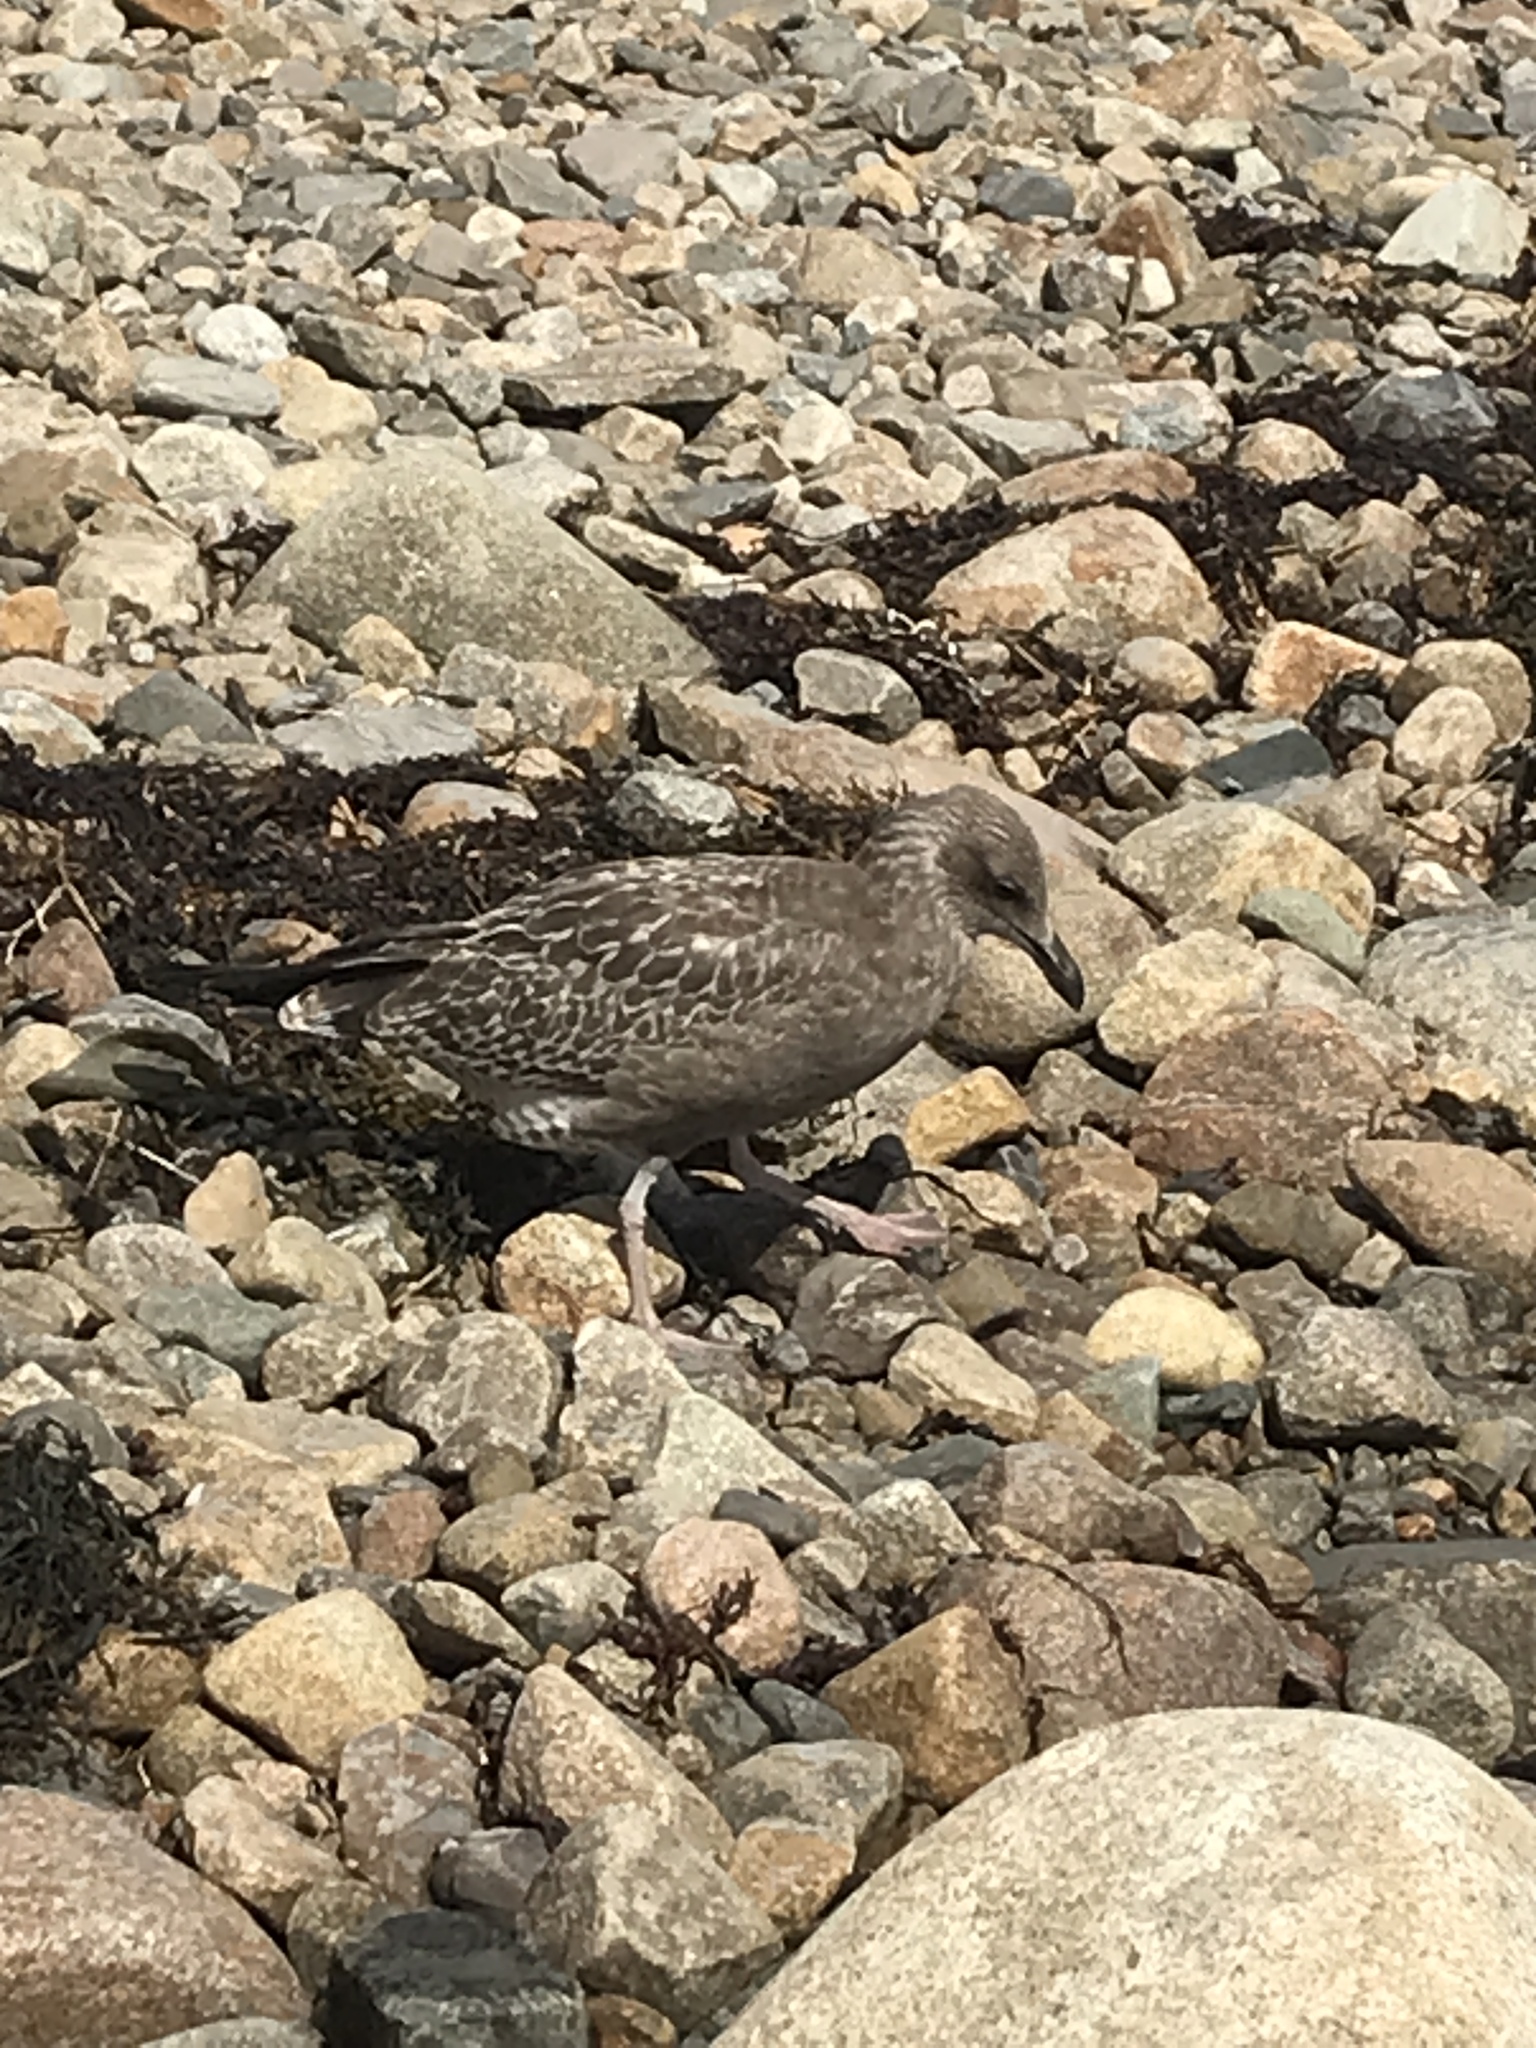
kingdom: Animalia
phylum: Chordata
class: Aves
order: Charadriiformes
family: Laridae
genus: Larus
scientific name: Larus argentatus
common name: Herring gull
